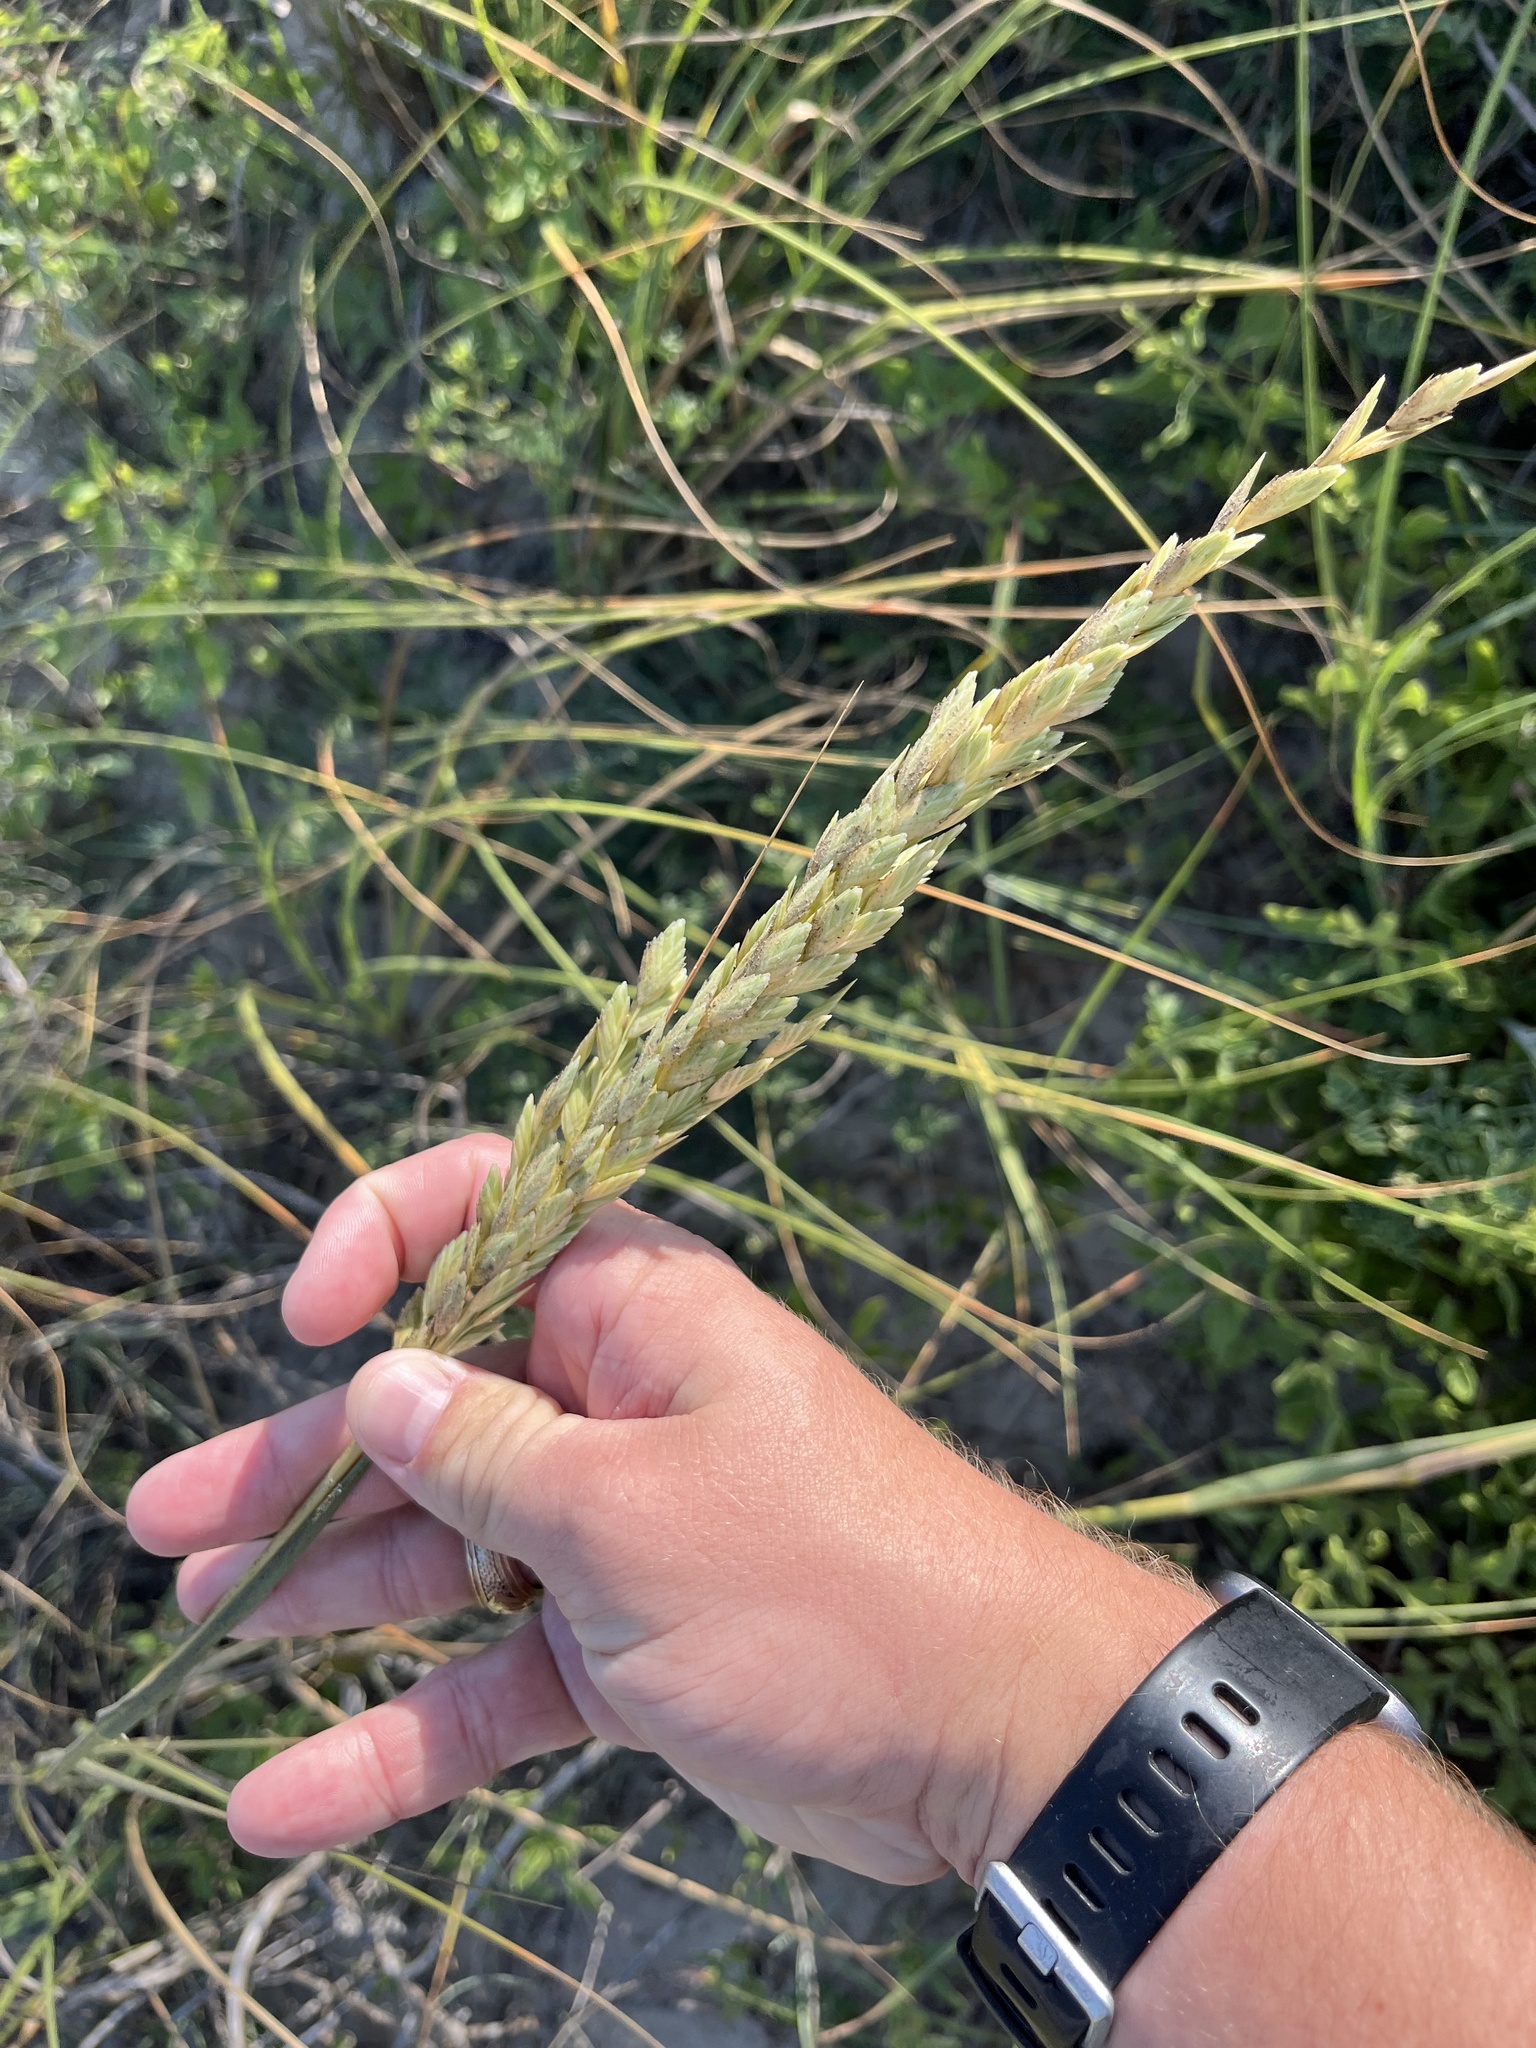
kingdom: Plantae
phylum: Tracheophyta
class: Liliopsida
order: Poales
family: Poaceae
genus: Uniola
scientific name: Uniola paniculata
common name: Seaside-oats
